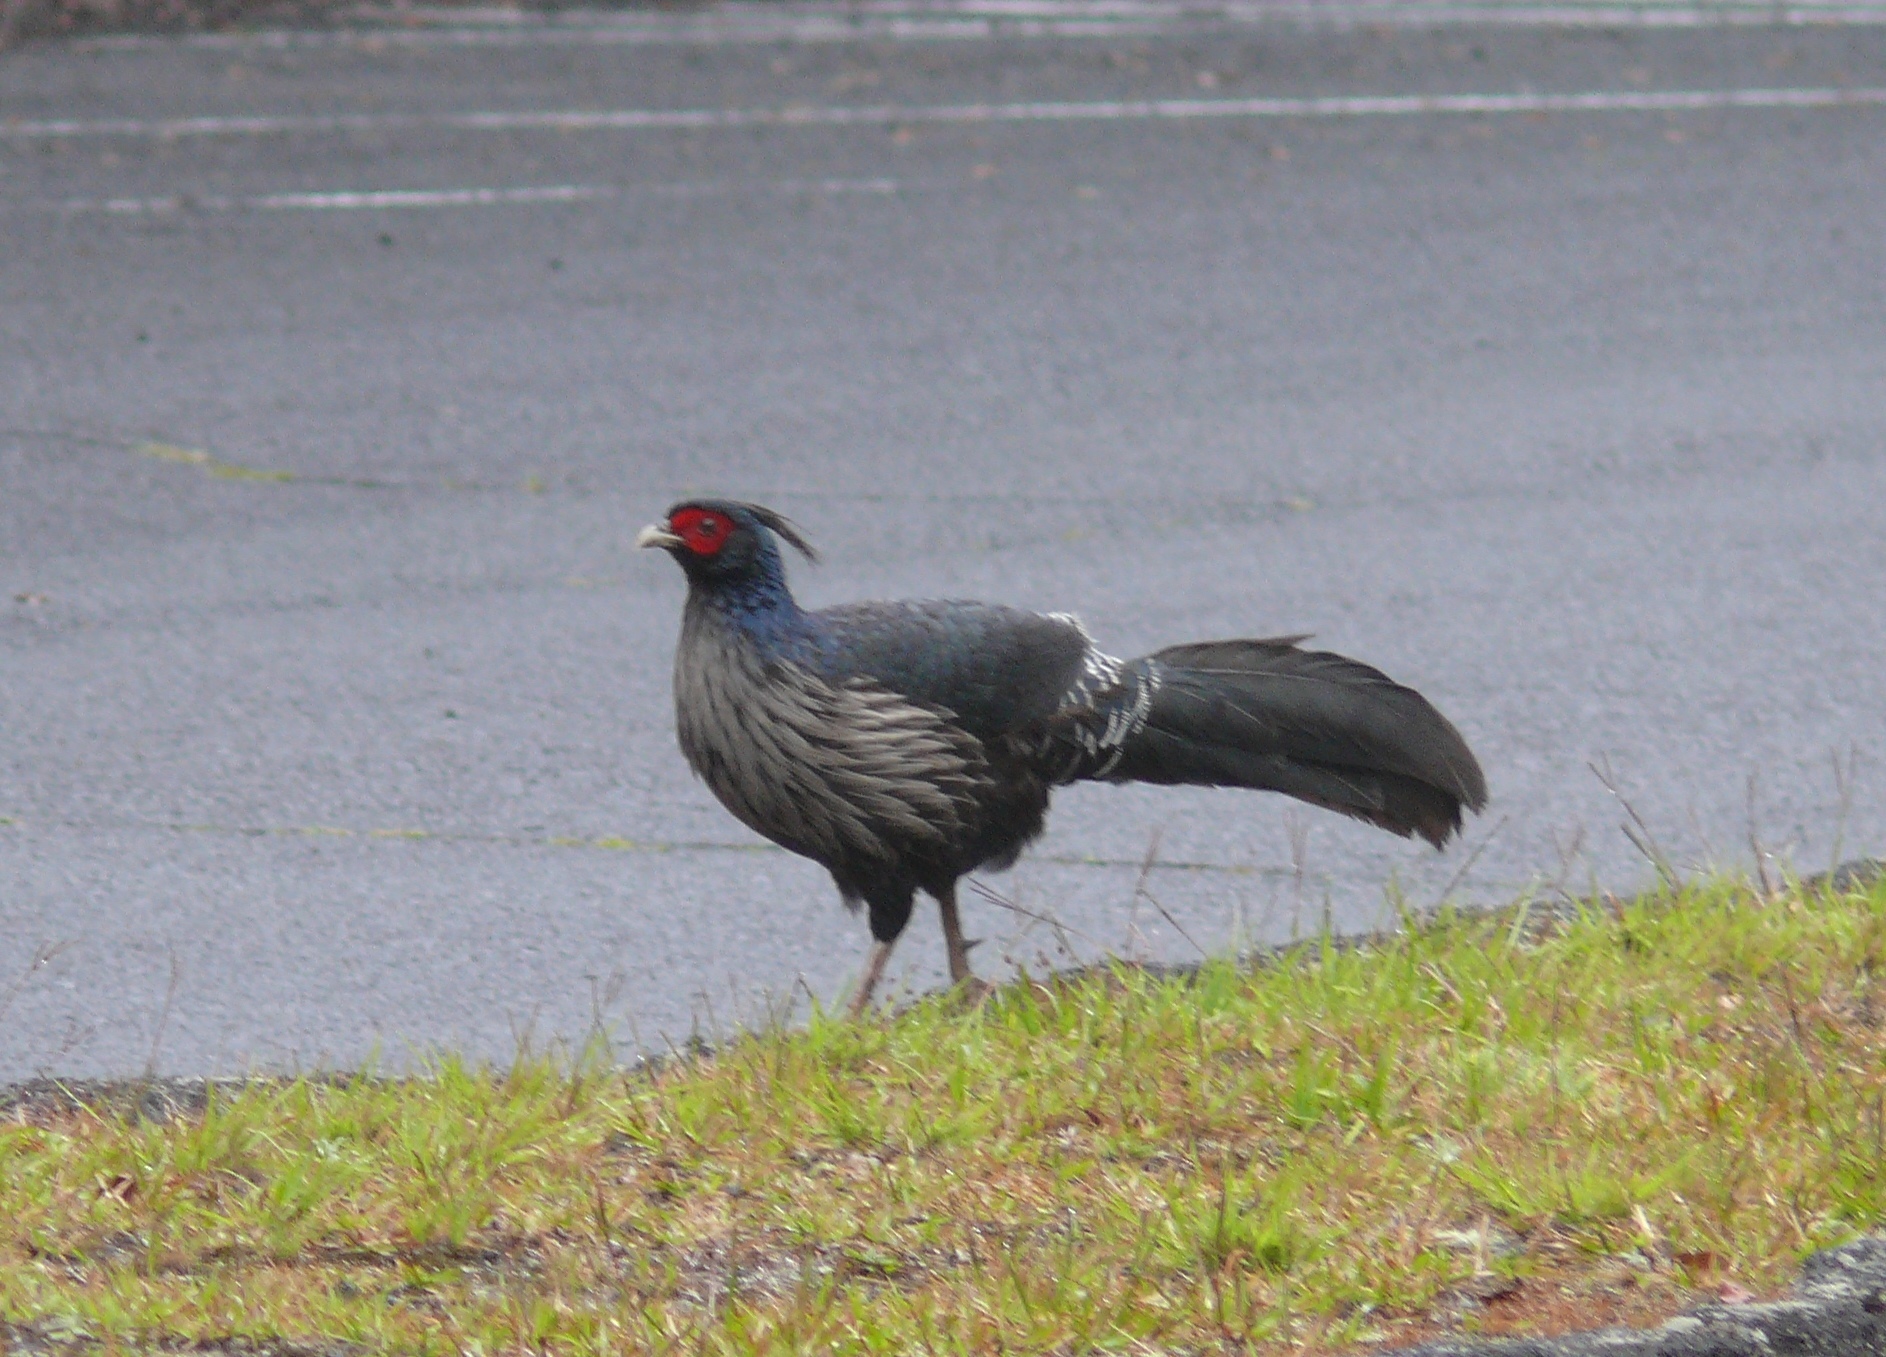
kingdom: Animalia
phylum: Chordata
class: Aves
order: Galliformes
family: Phasianidae
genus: Lophura
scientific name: Lophura leucomelanos
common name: Kalij pheasant
